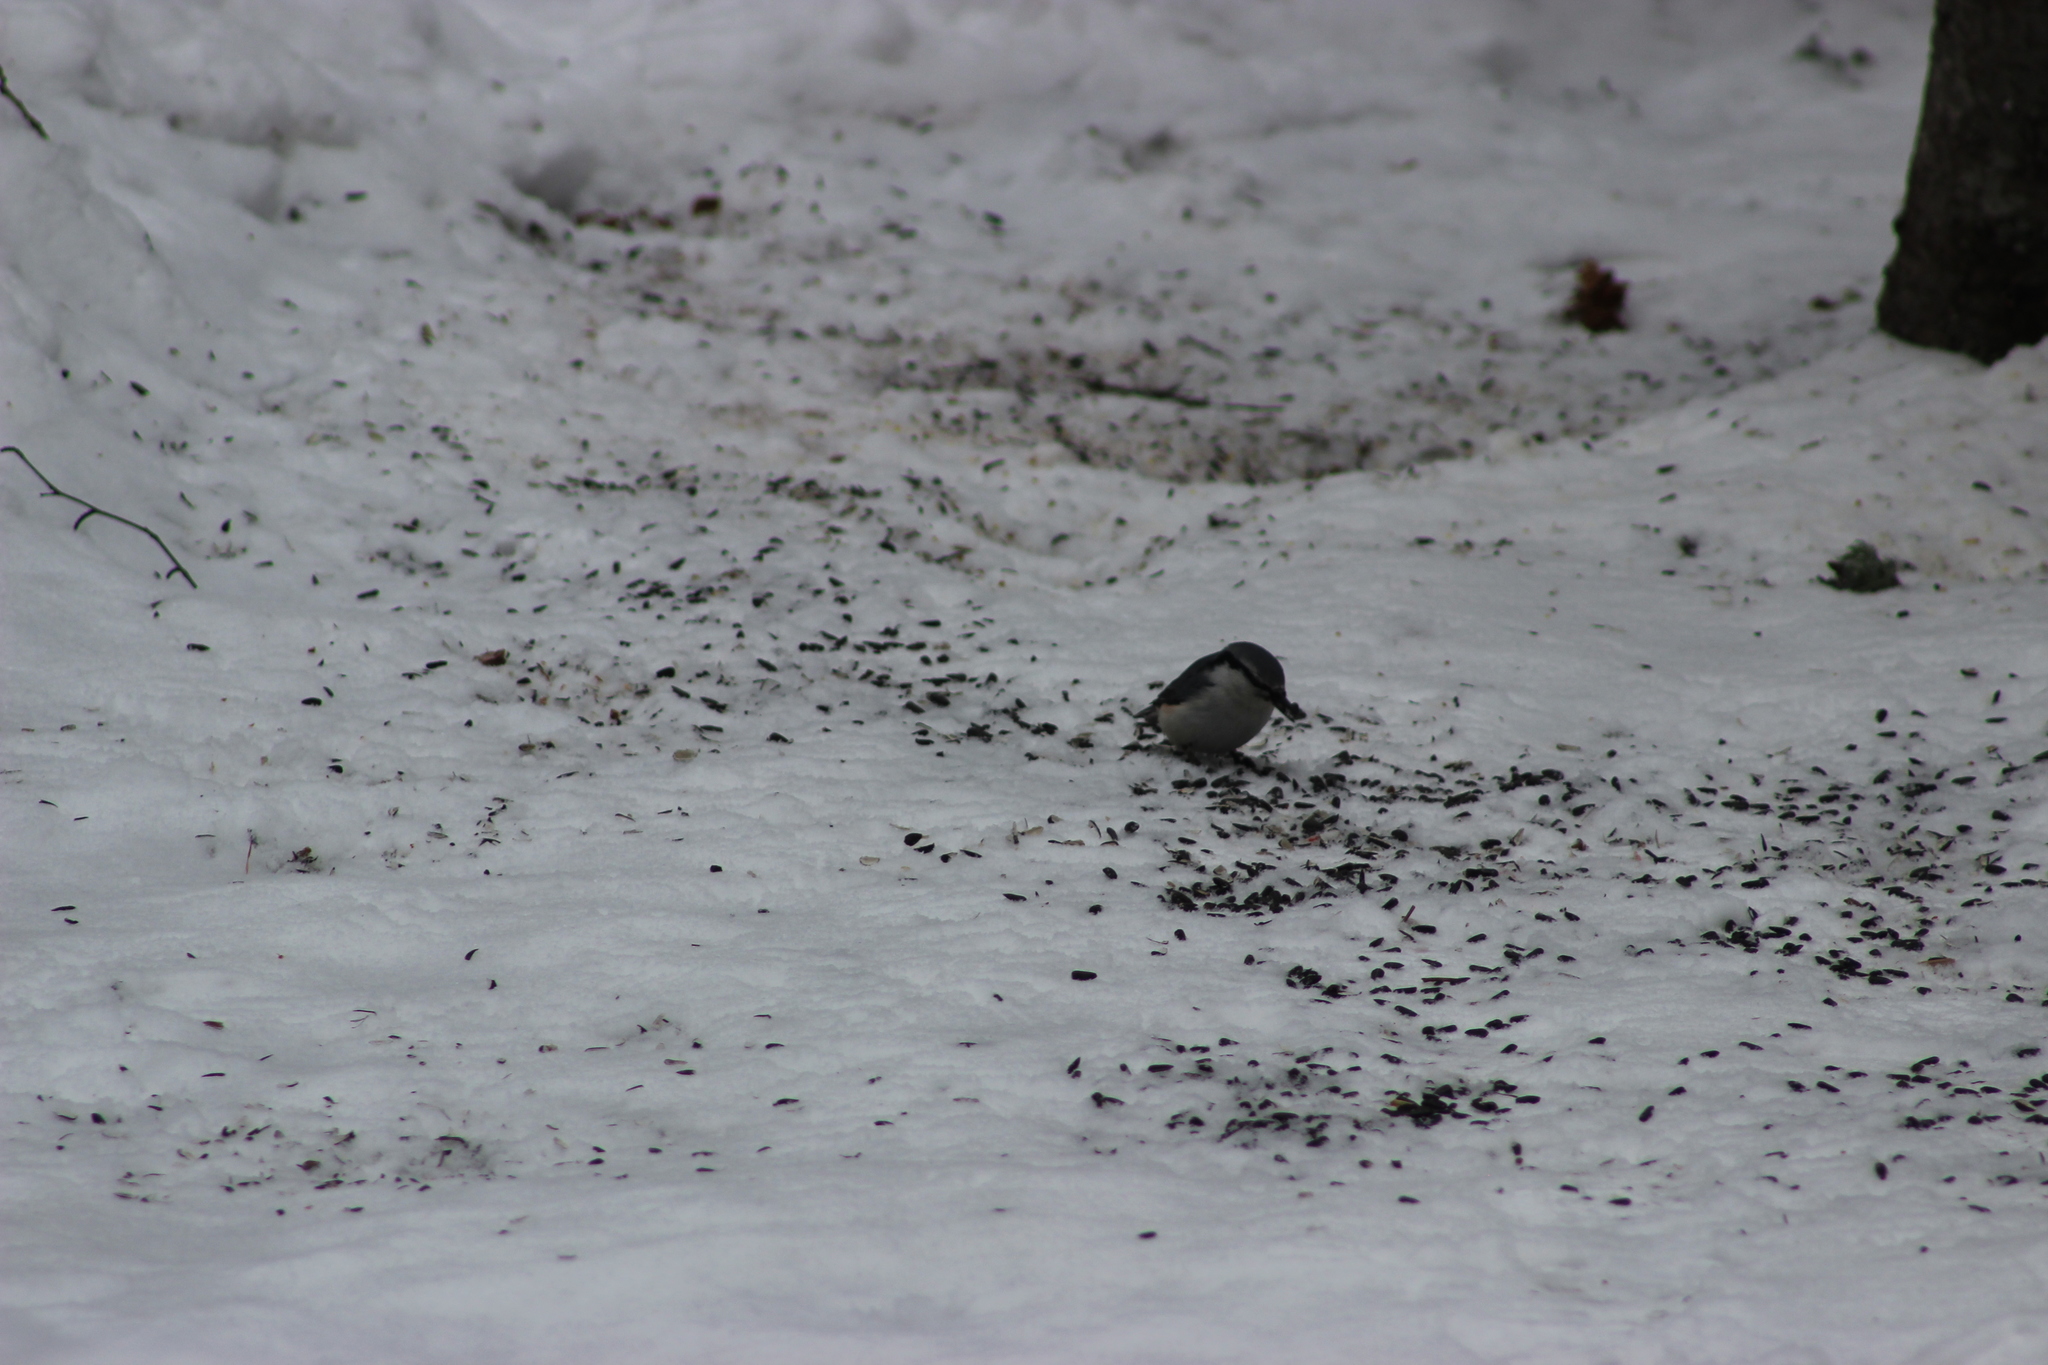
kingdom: Animalia
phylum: Chordata
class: Aves
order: Passeriformes
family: Sittidae
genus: Sitta
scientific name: Sitta europaea
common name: Eurasian nuthatch
